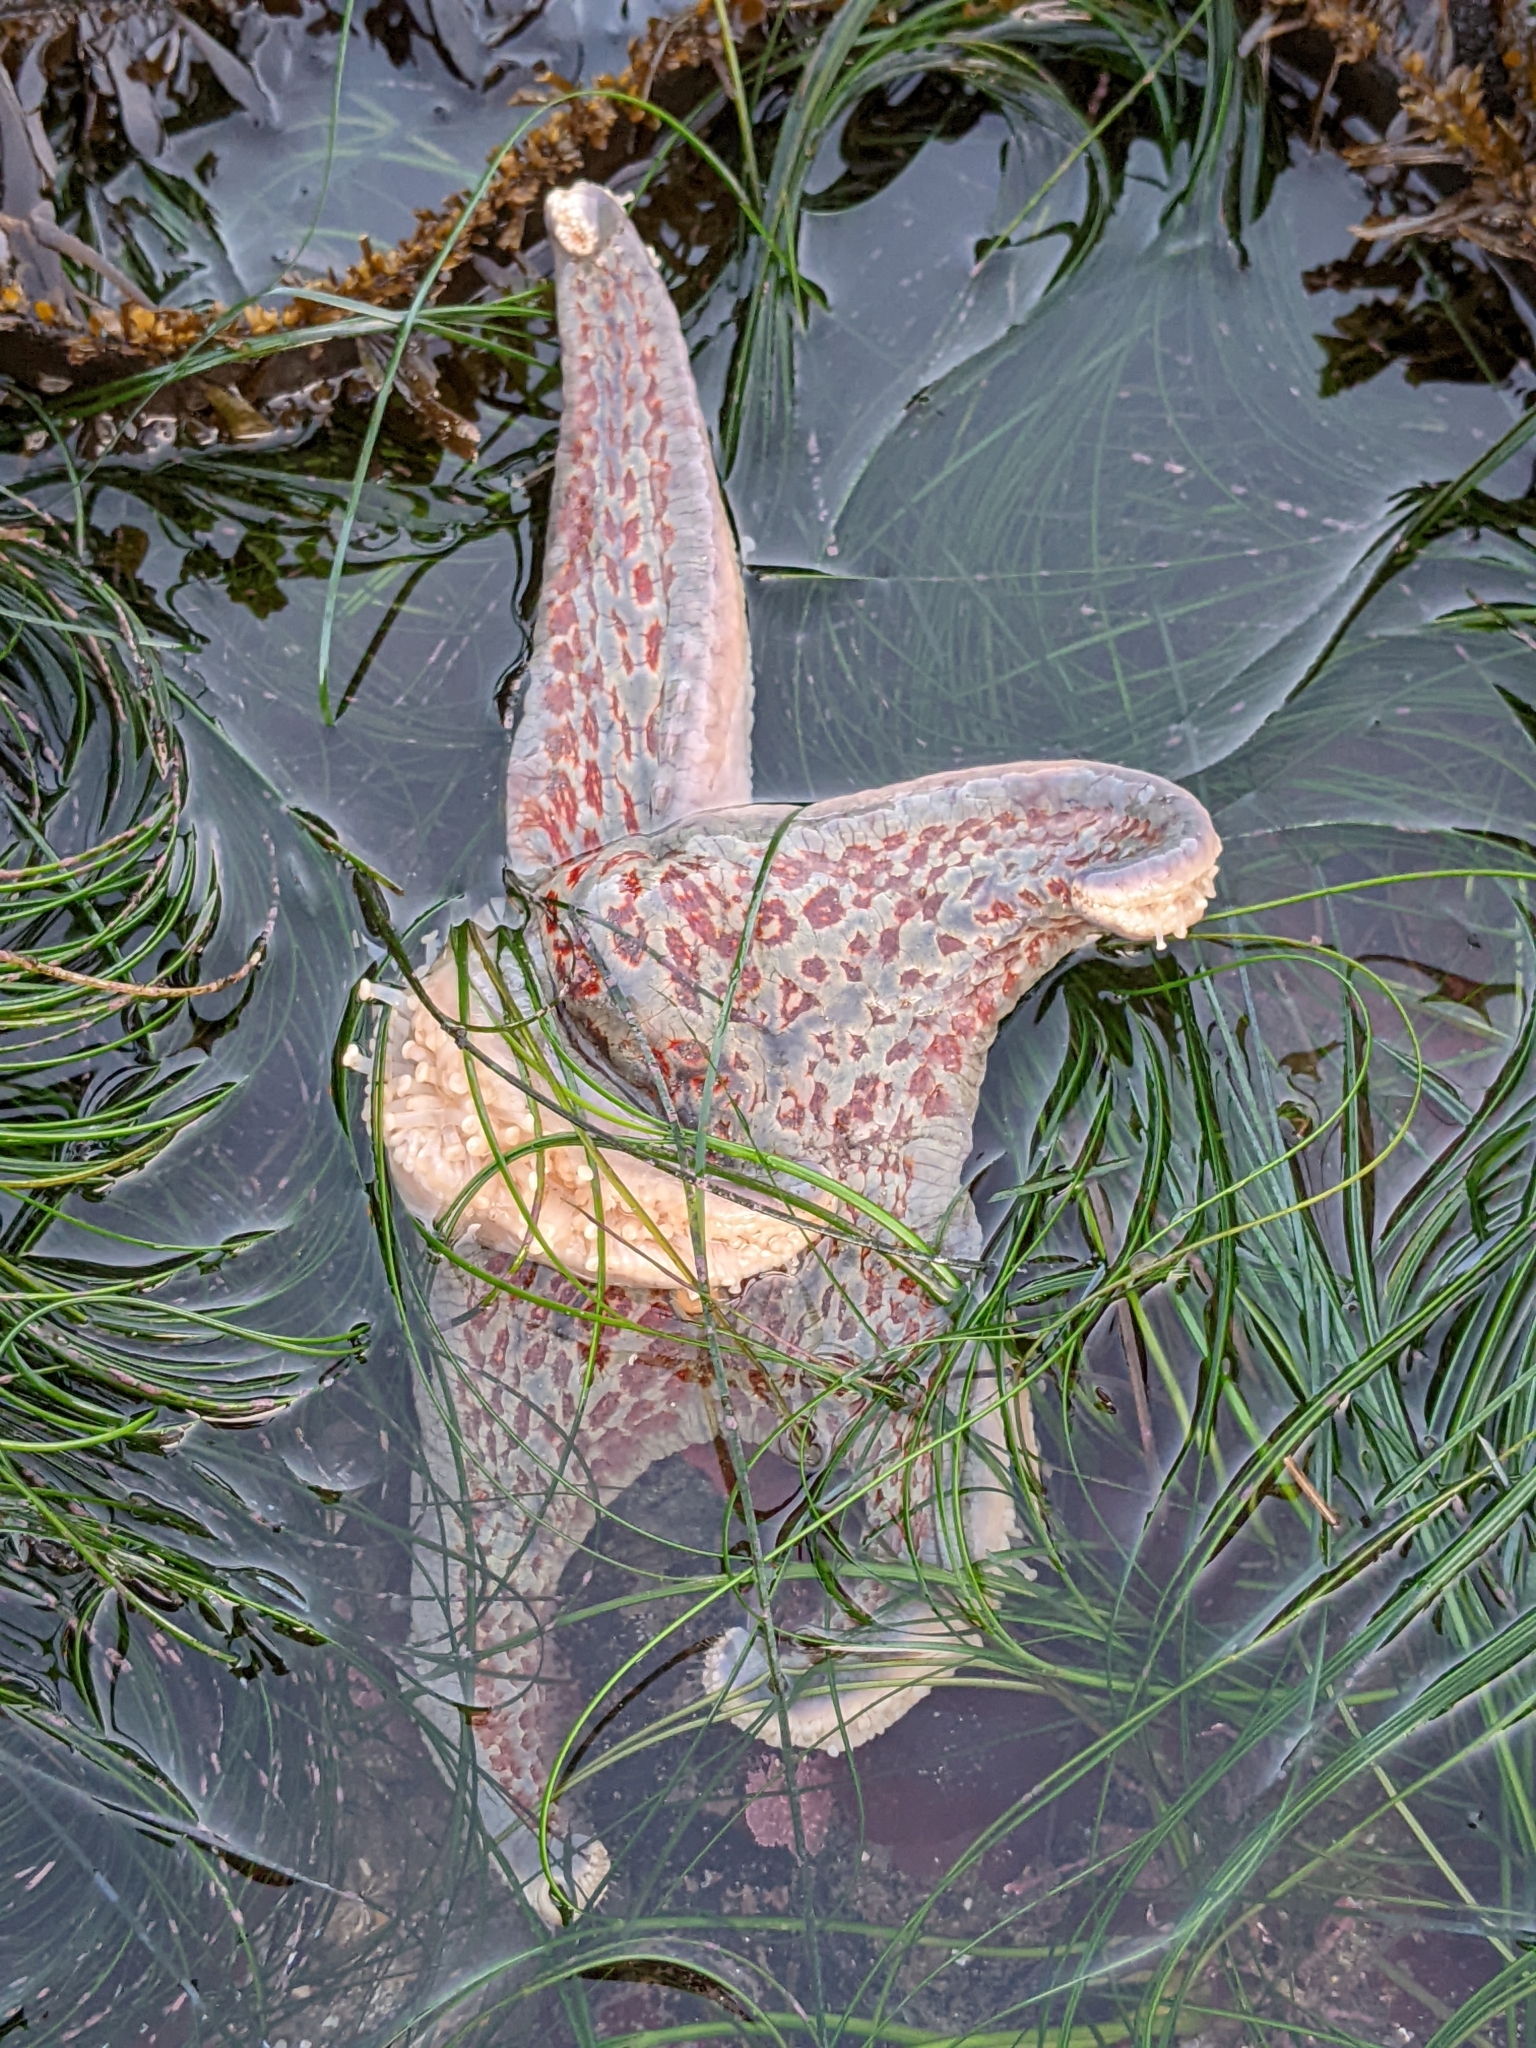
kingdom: Animalia
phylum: Echinodermata
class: Asteroidea
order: Valvatida
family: Asteropseidae
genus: Dermasterias
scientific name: Dermasterias imbricata
